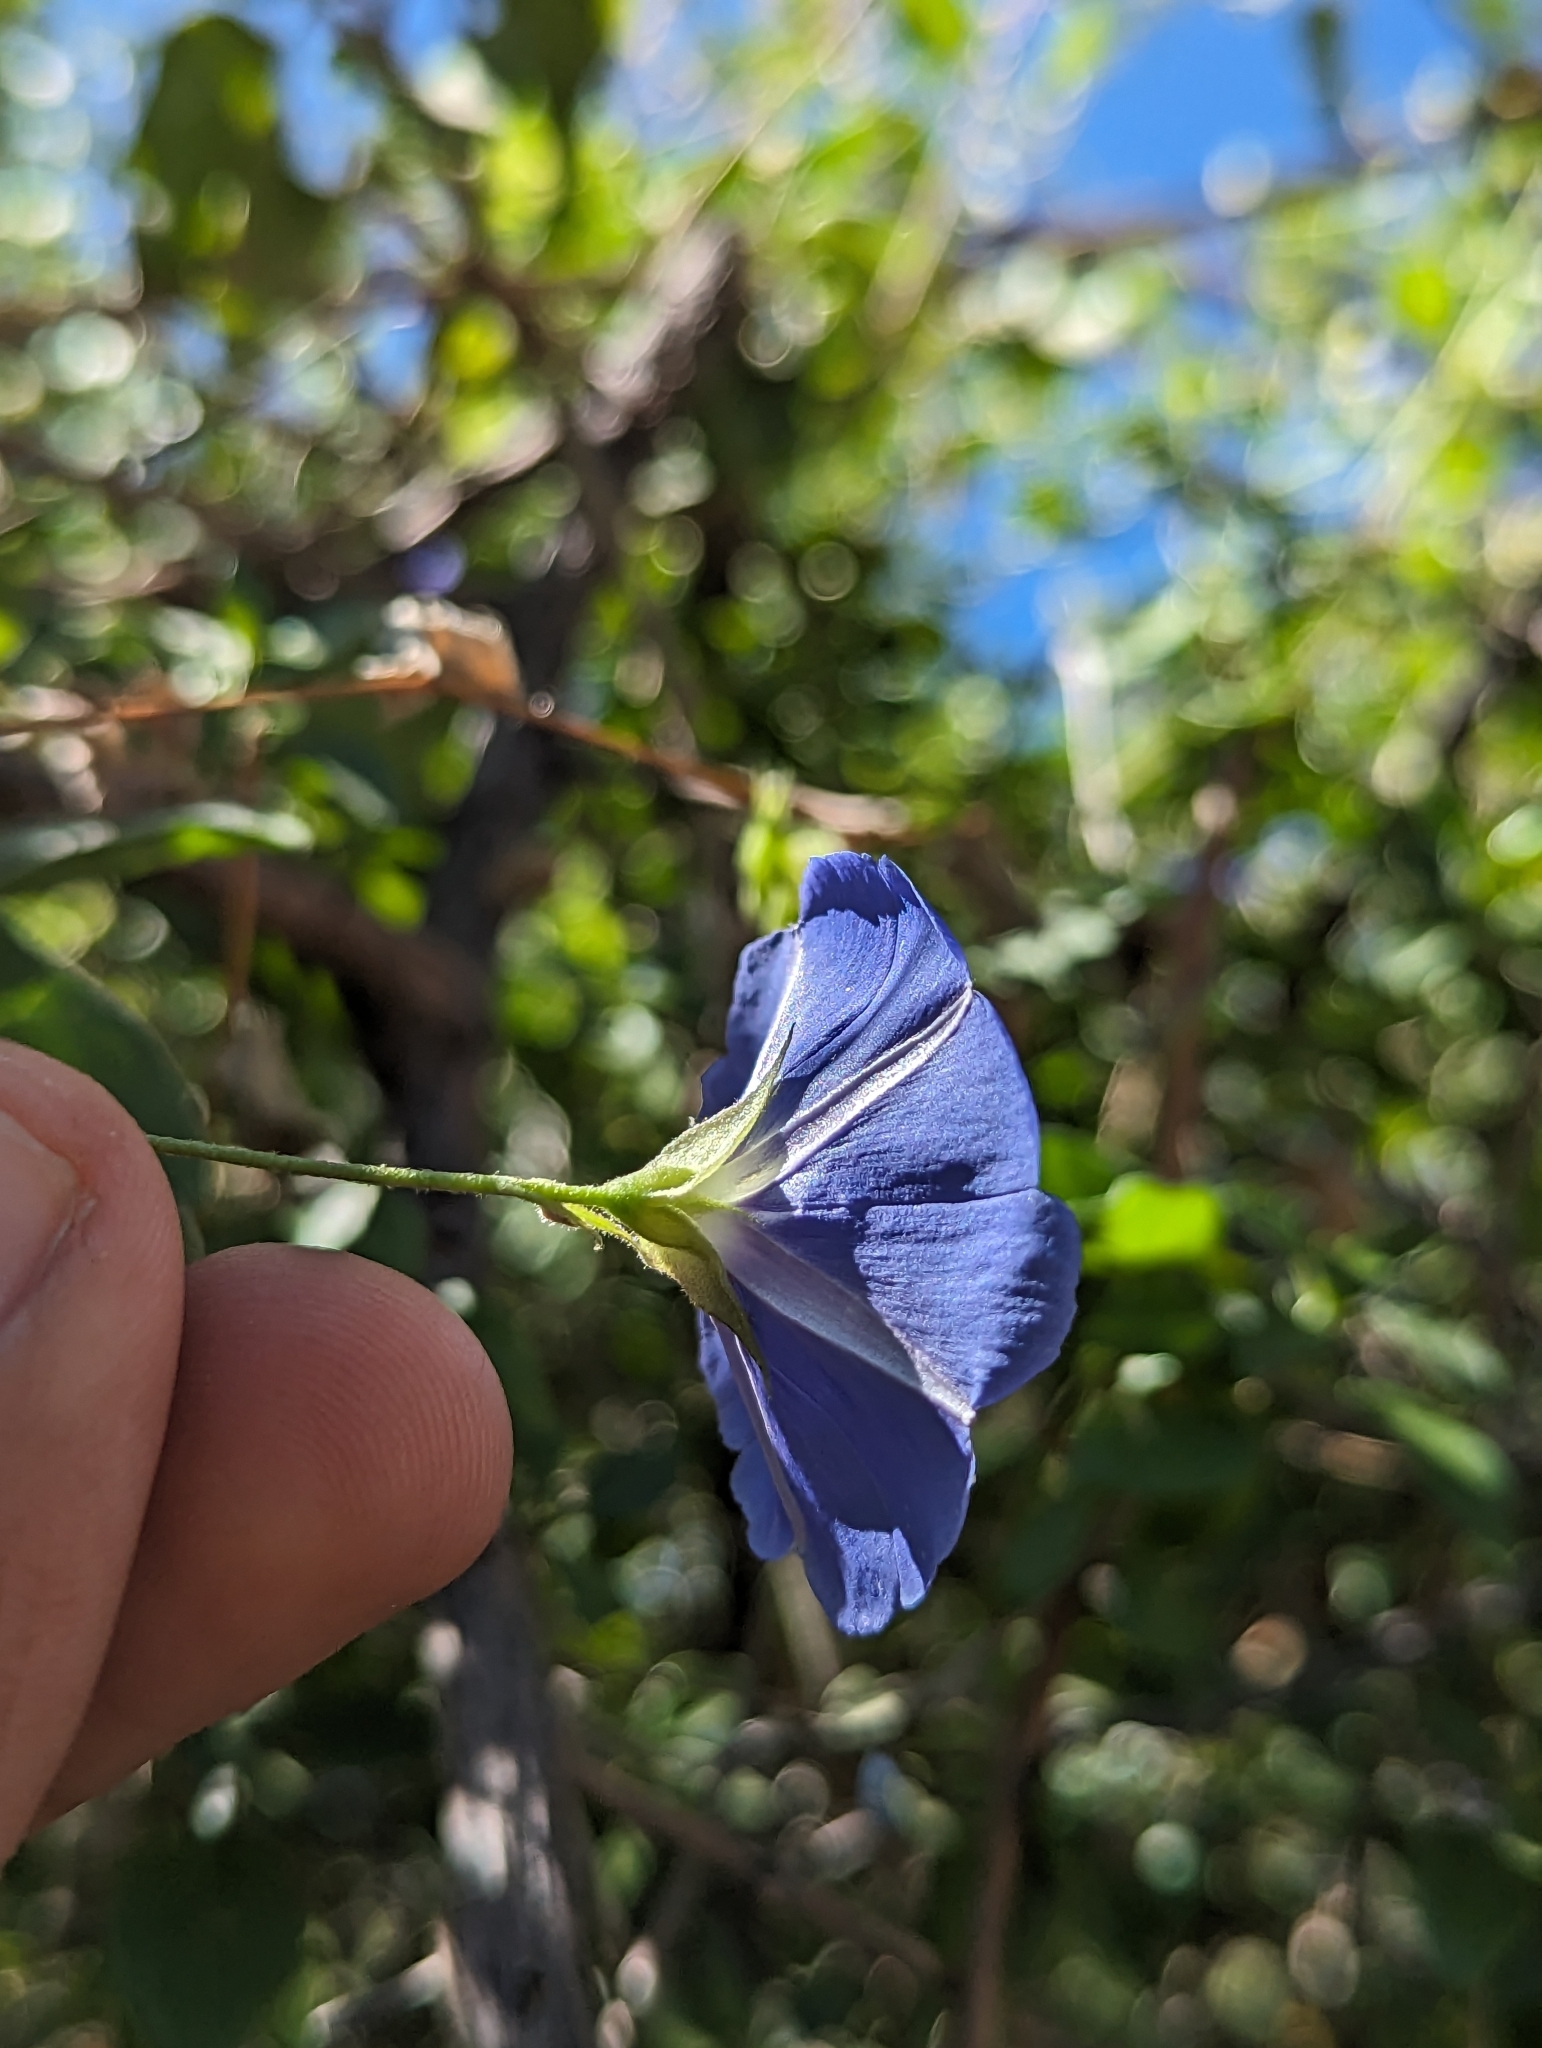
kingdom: Plantae
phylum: Tracheophyta
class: Magnoliopsida
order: Solanales
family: Convolvulaceae
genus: Jacquemontia
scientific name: Jacquemontia abutiloides
